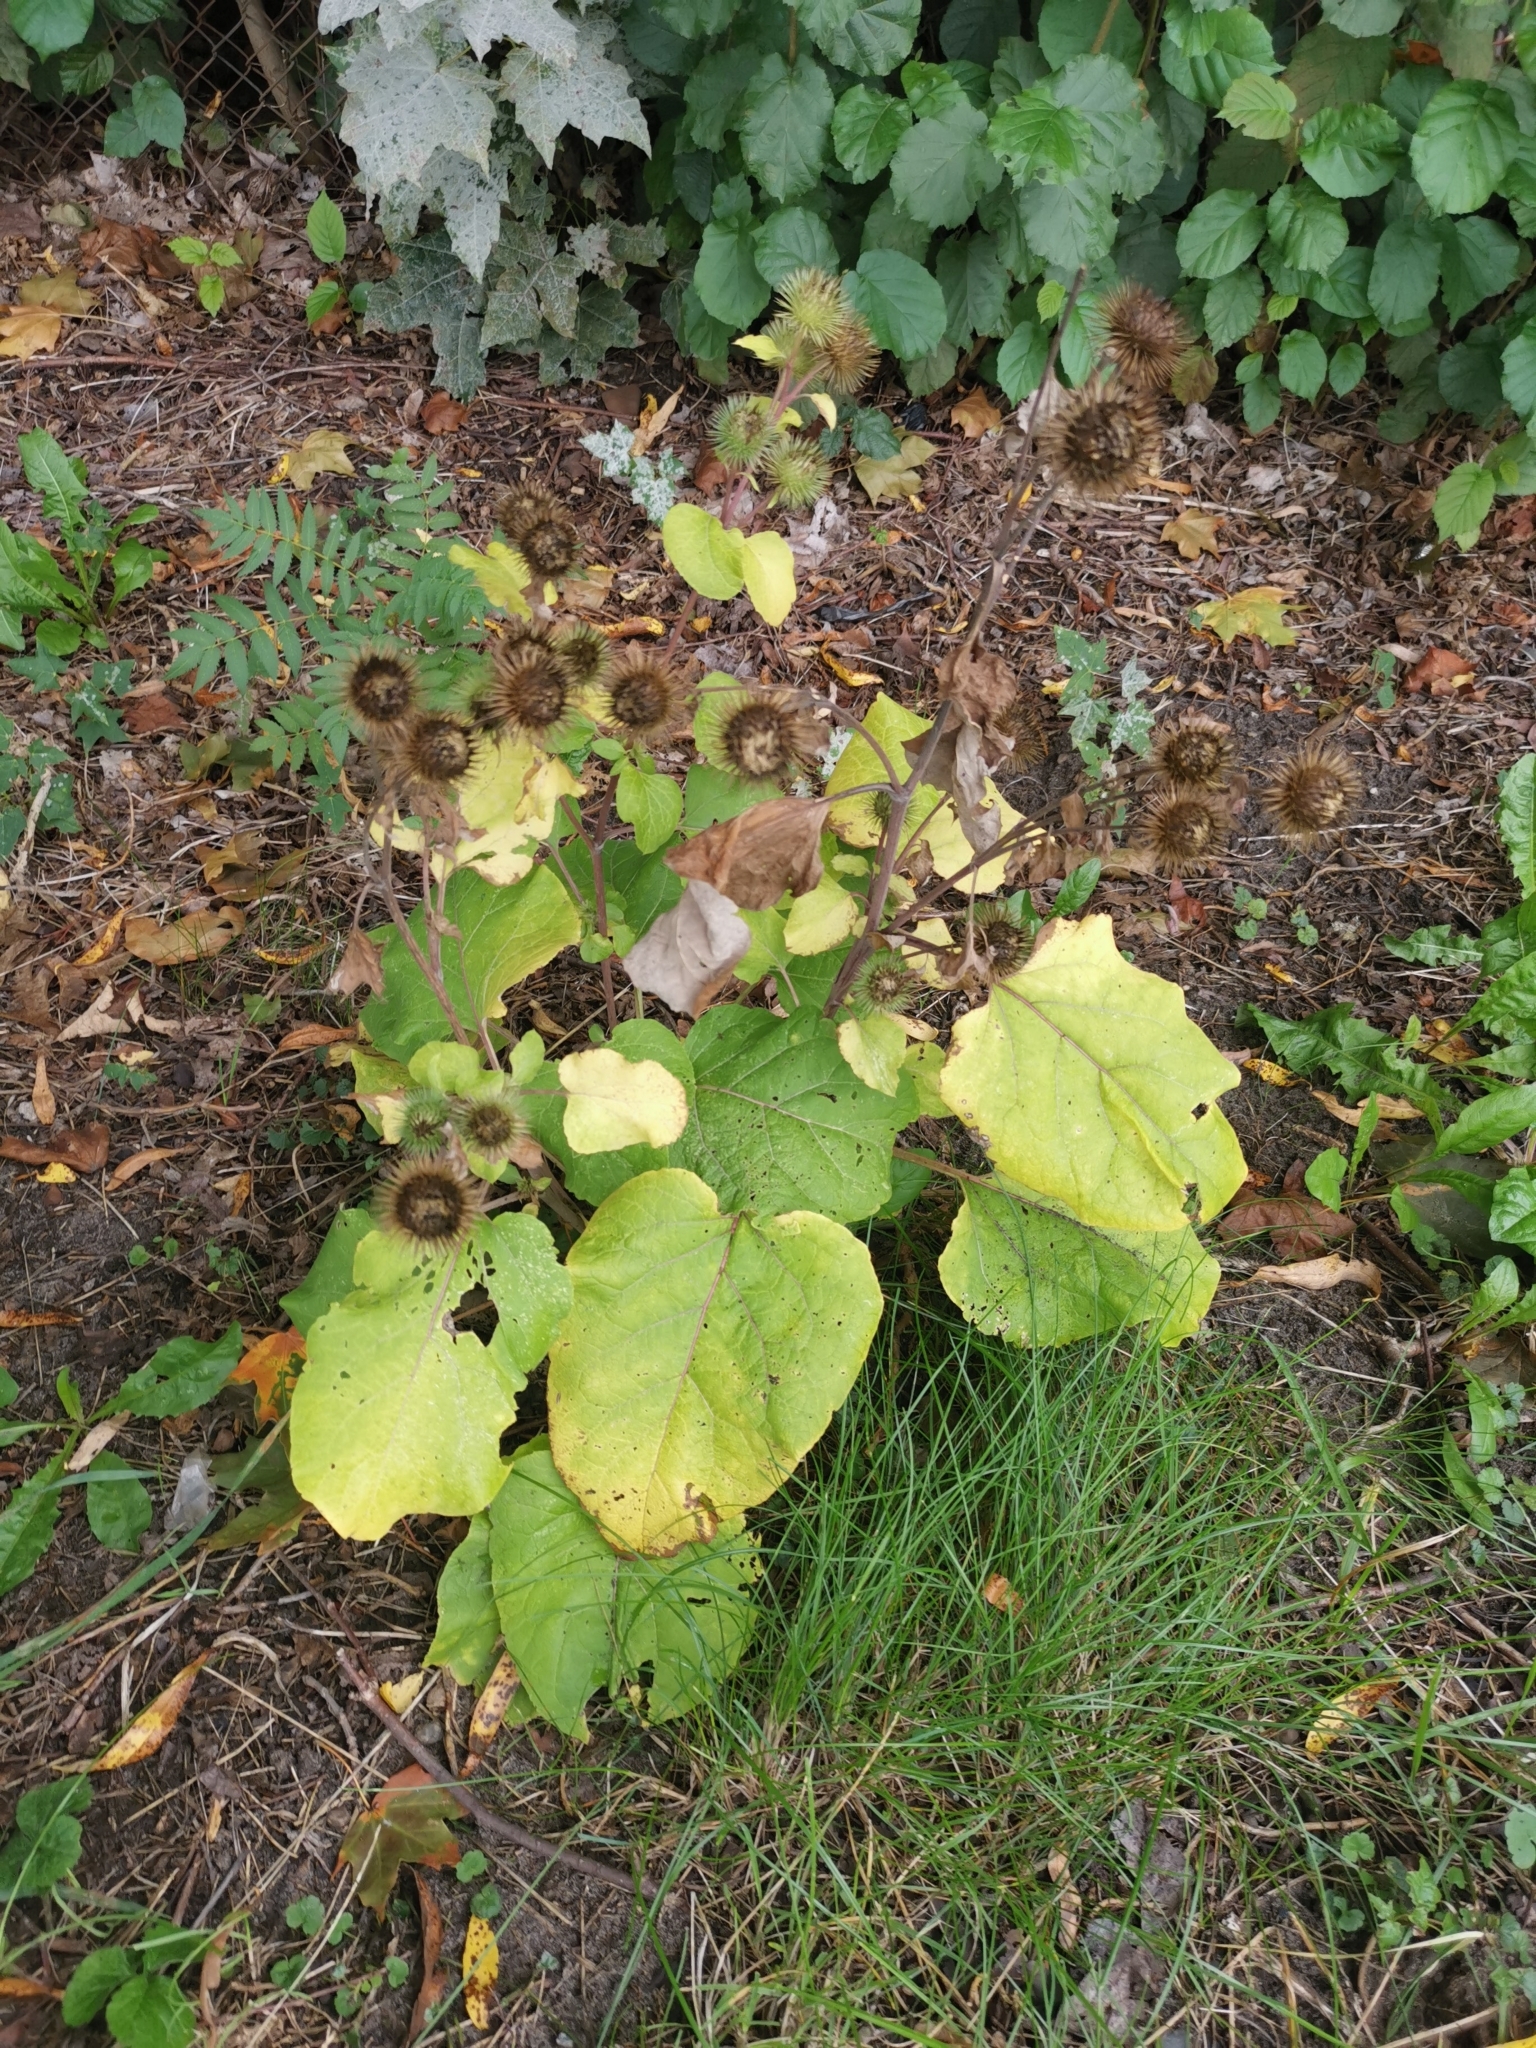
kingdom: Plantae
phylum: Tracheophyta
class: Magnoliopsida
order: Asterales
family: Asteraceae
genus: Arctium
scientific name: Arctium lappa
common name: Greater burdock
